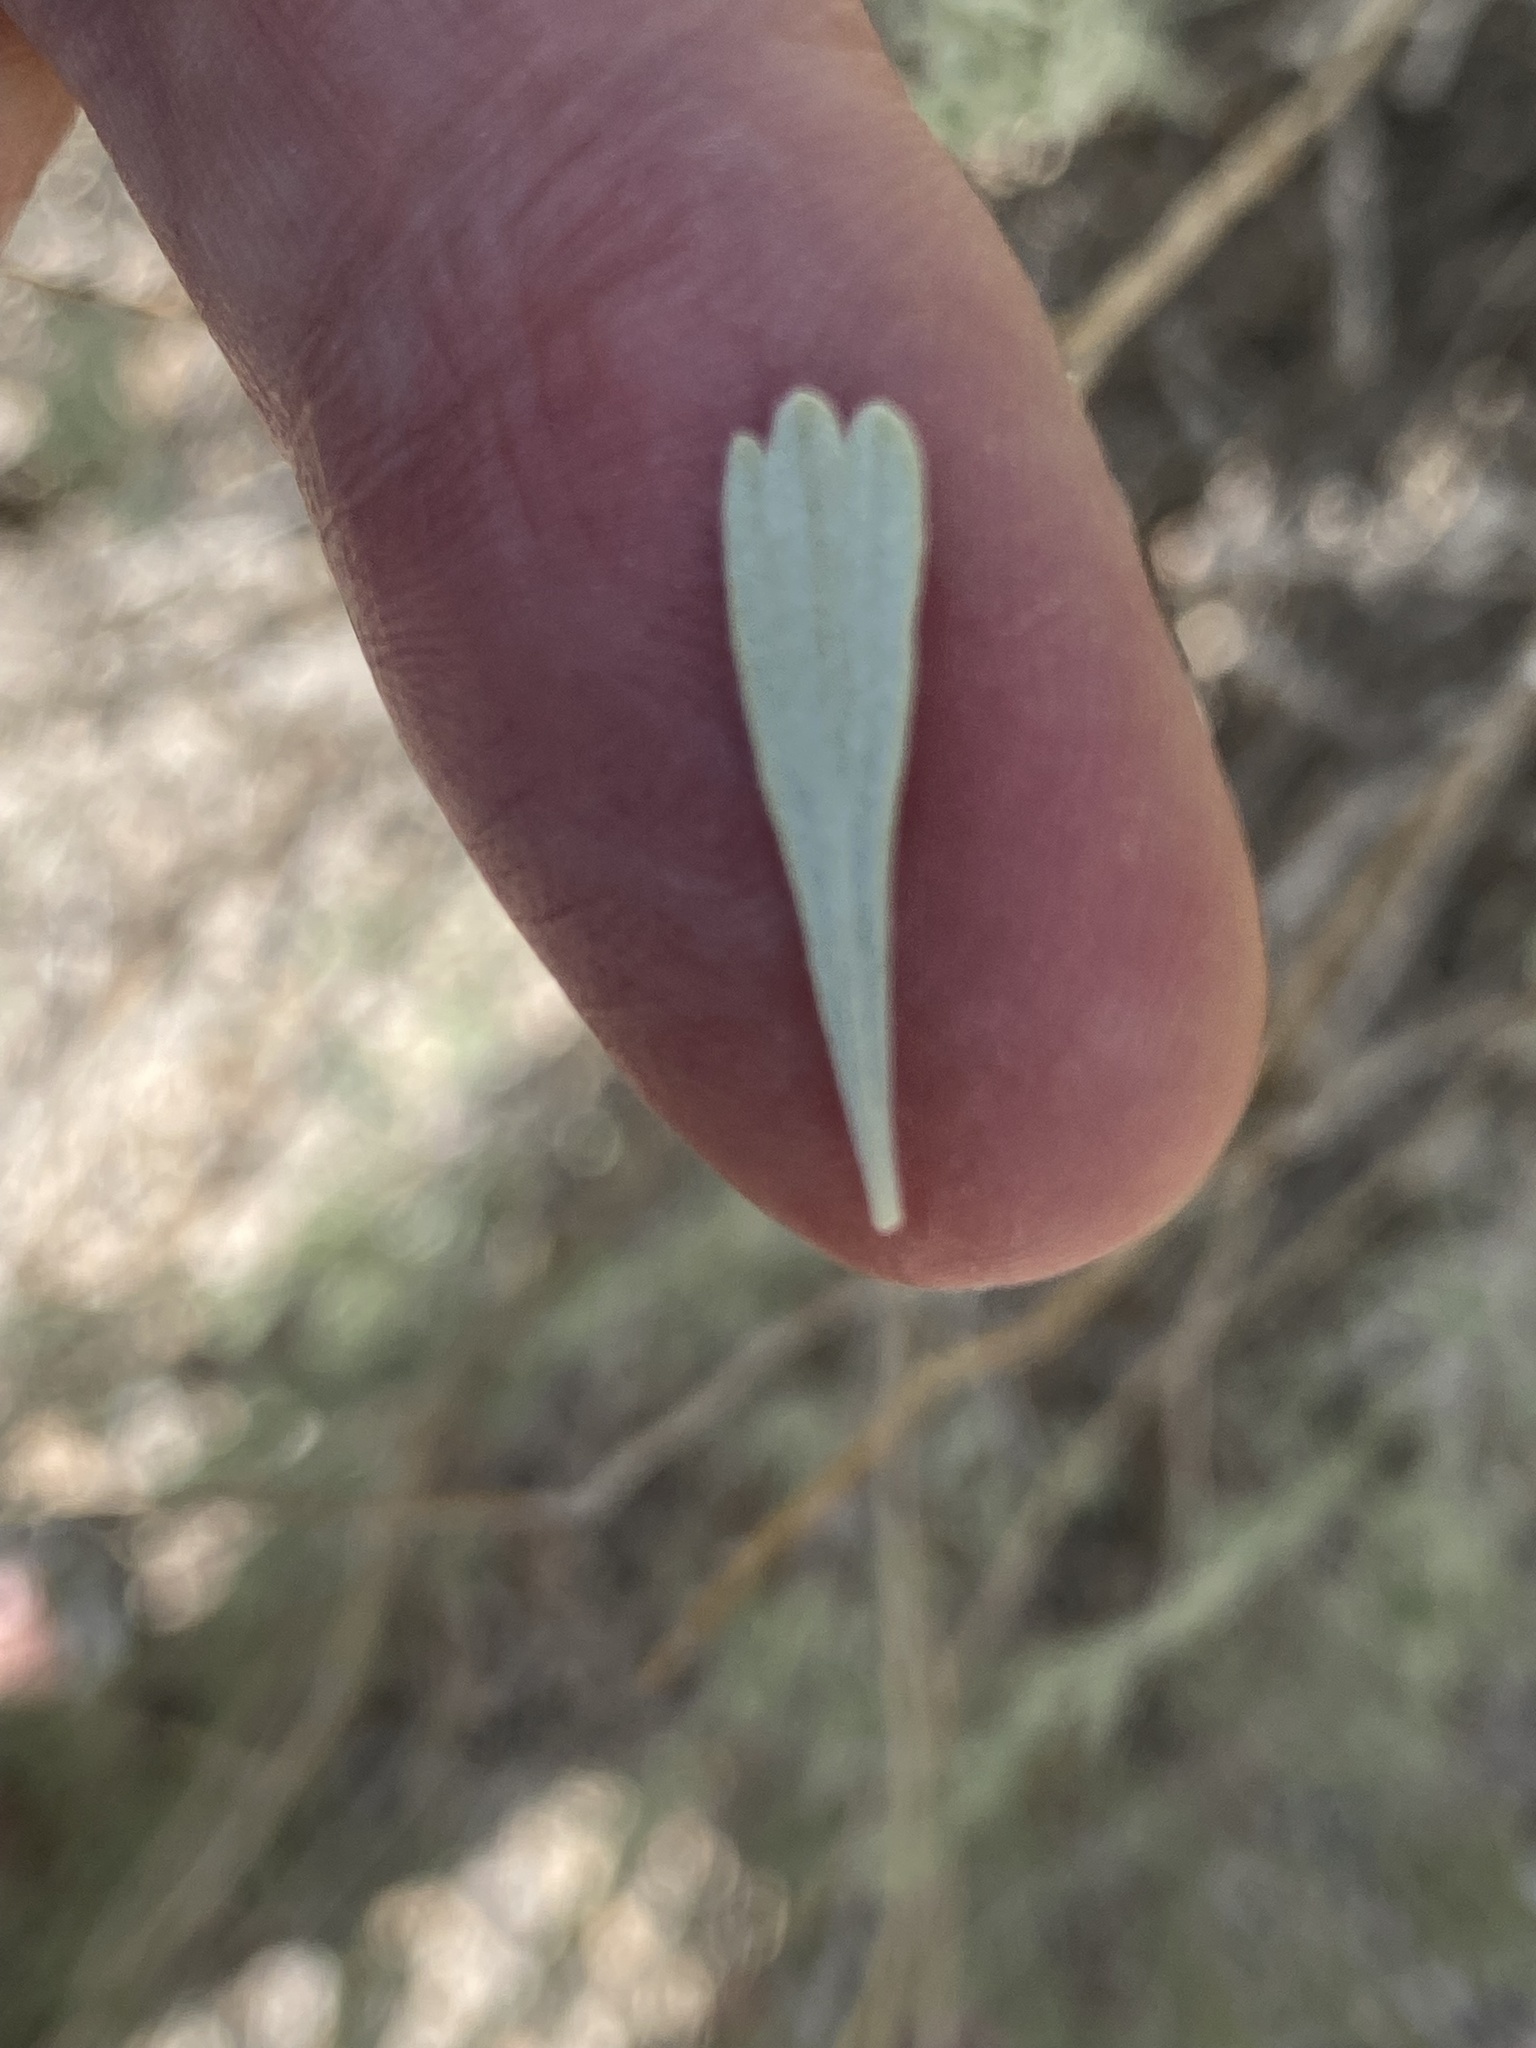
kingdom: Plantae
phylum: Tracheophyta
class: Magnoliopsida
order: Asterales
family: Asteraceae
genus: Artemisia
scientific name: Artemisia tridentata
